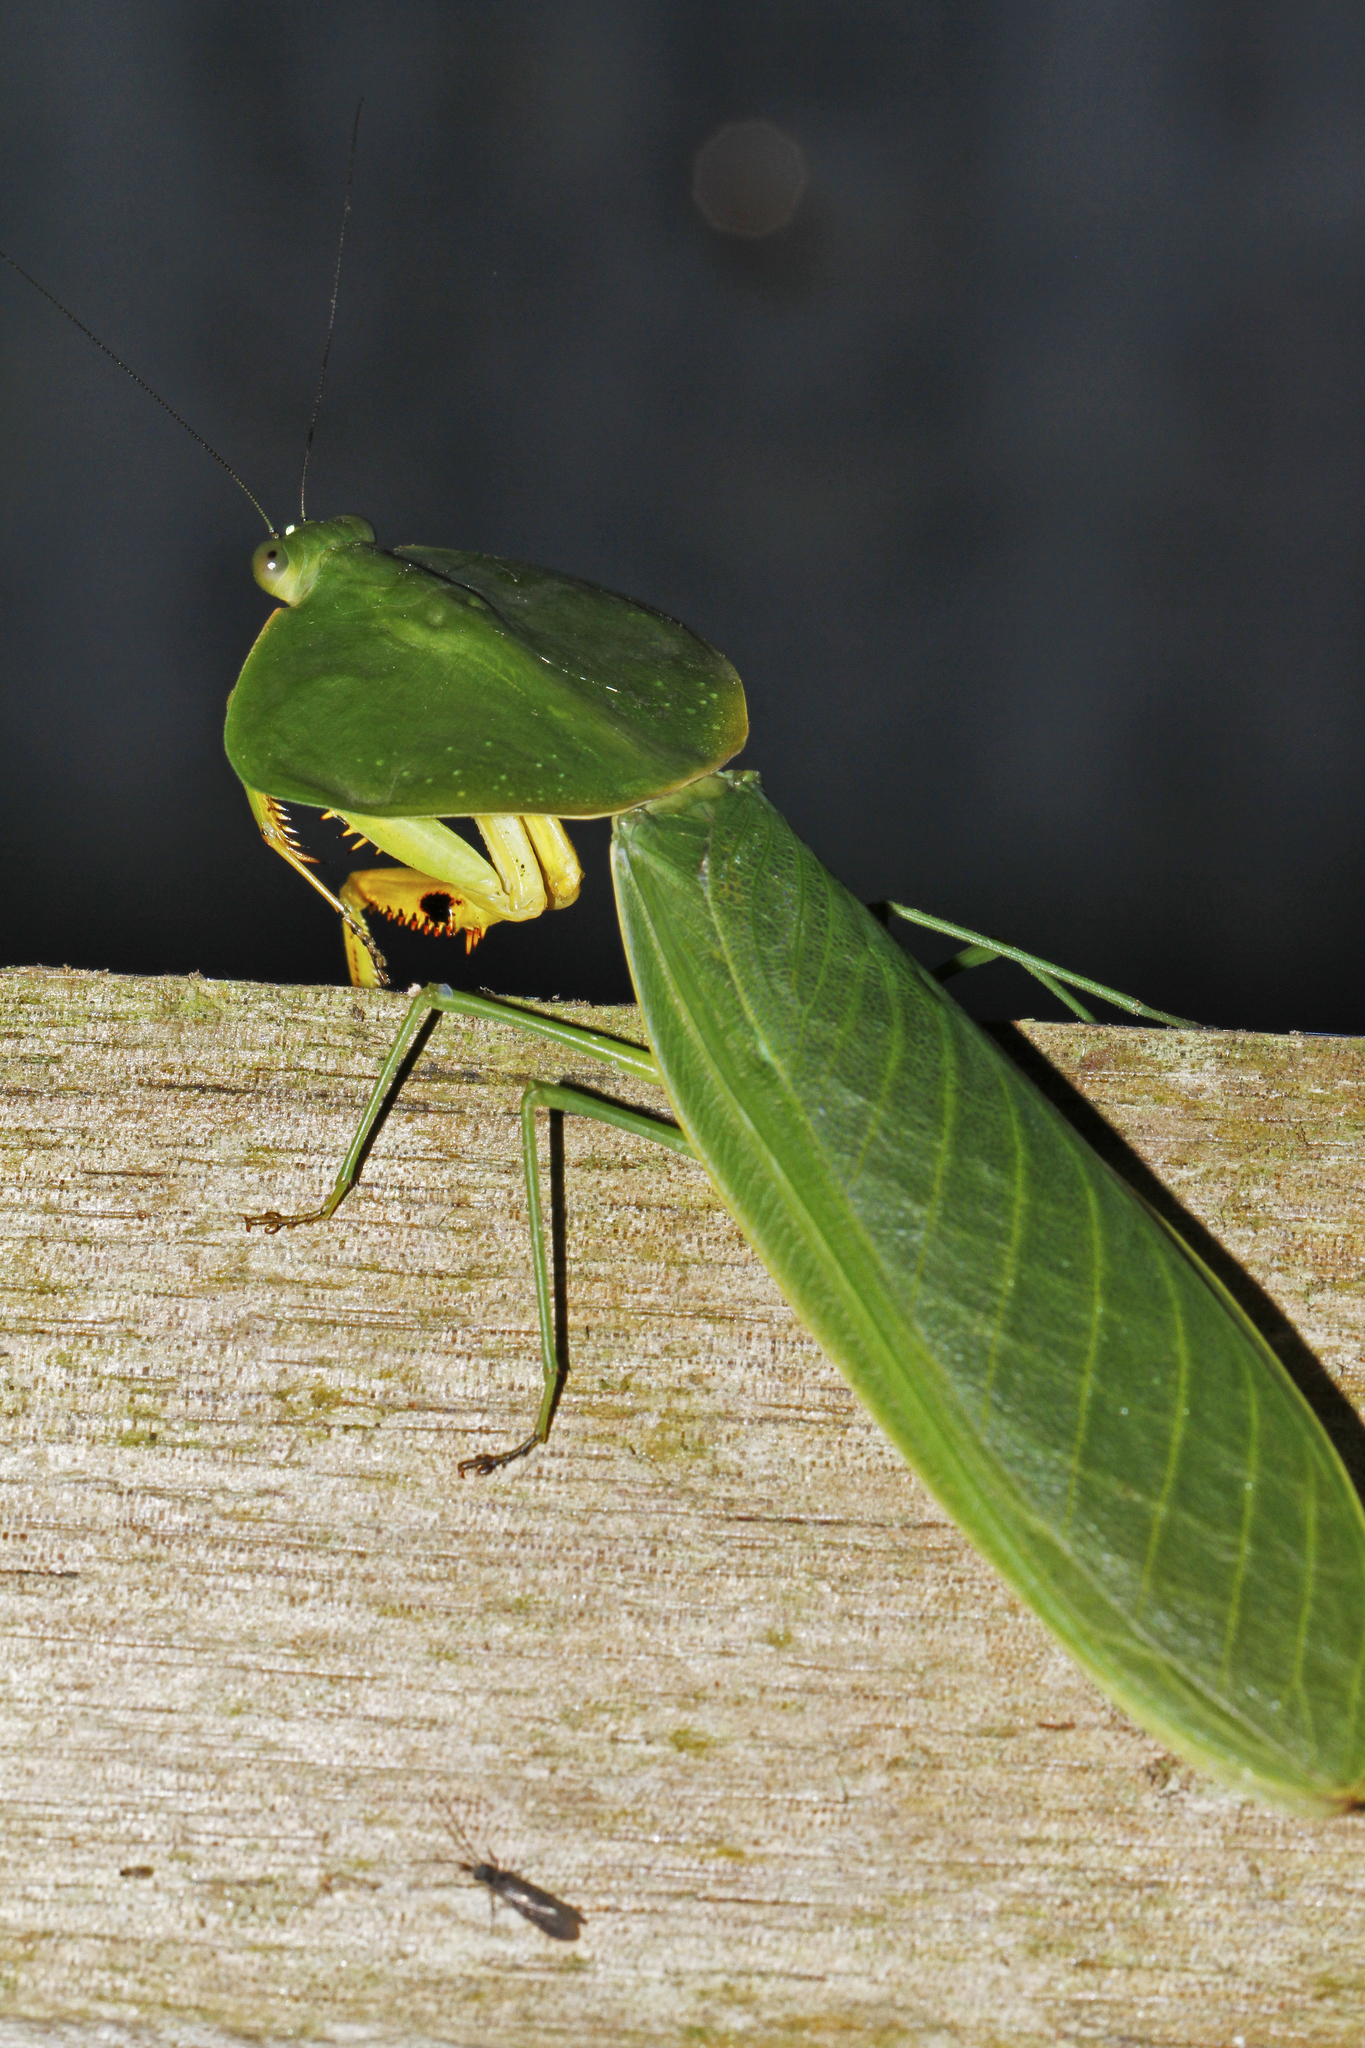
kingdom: Animalia
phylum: Arthropoda
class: Insecta
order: Mantodea
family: Mantidae
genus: Choeradodis
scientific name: Choeradodis rhombicollis
